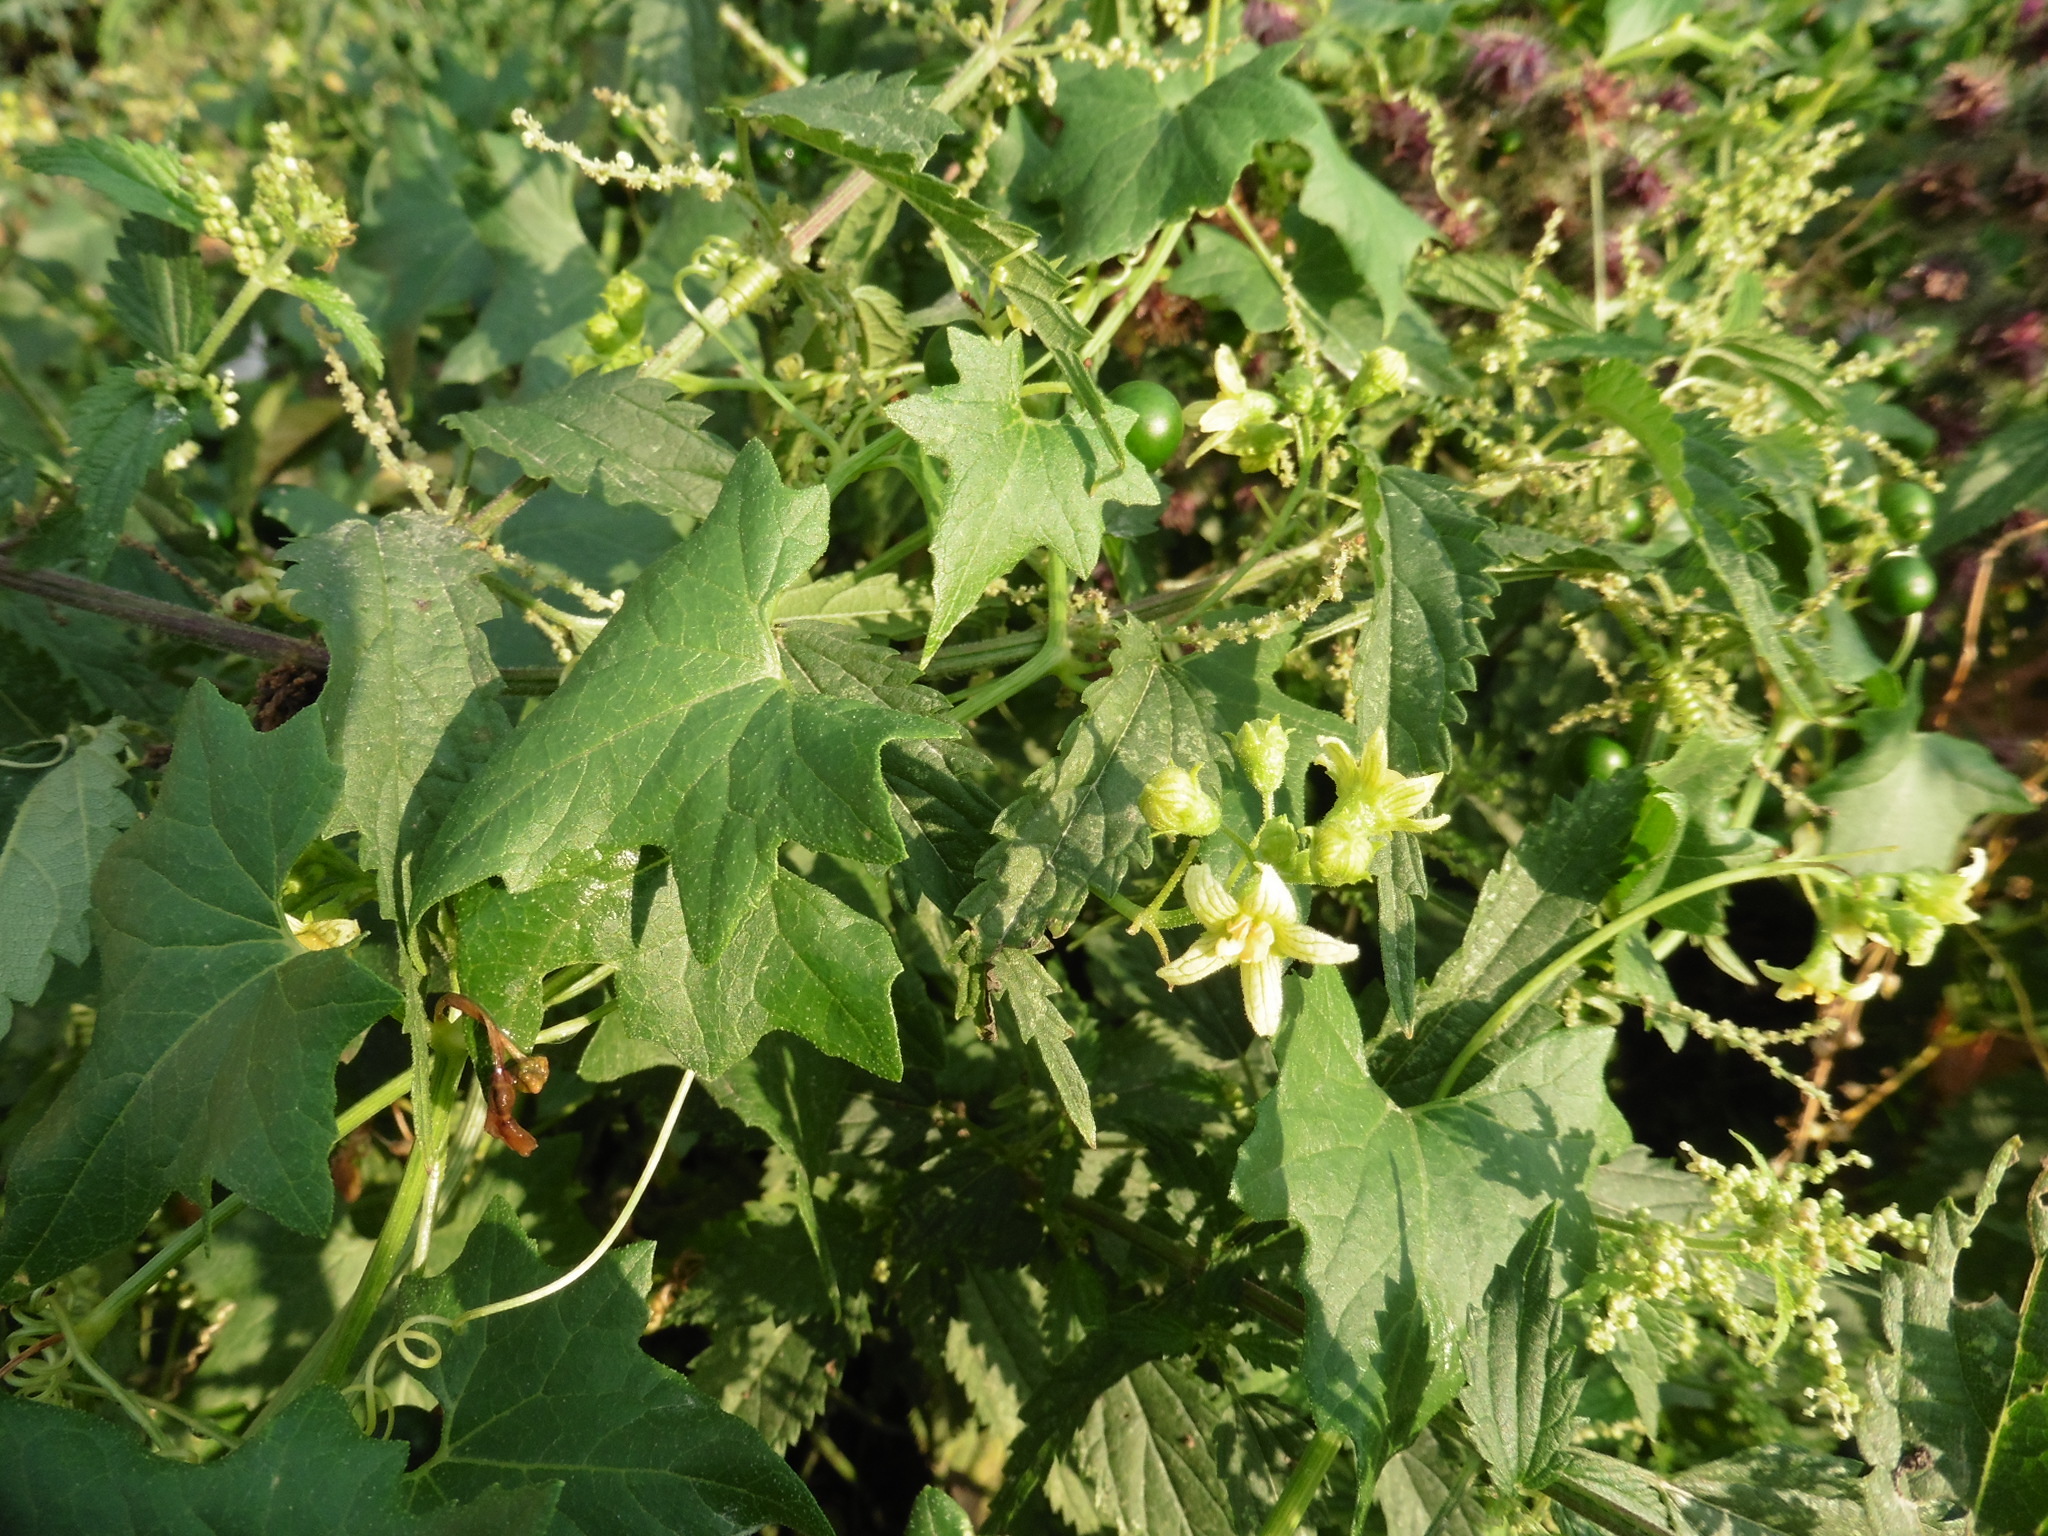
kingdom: Plantae
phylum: Tracheophyta
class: Magnoliopsida
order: Cucurbitales
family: Cucurbitaceae
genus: Bryonia
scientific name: Bryonia alba
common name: White bryony
